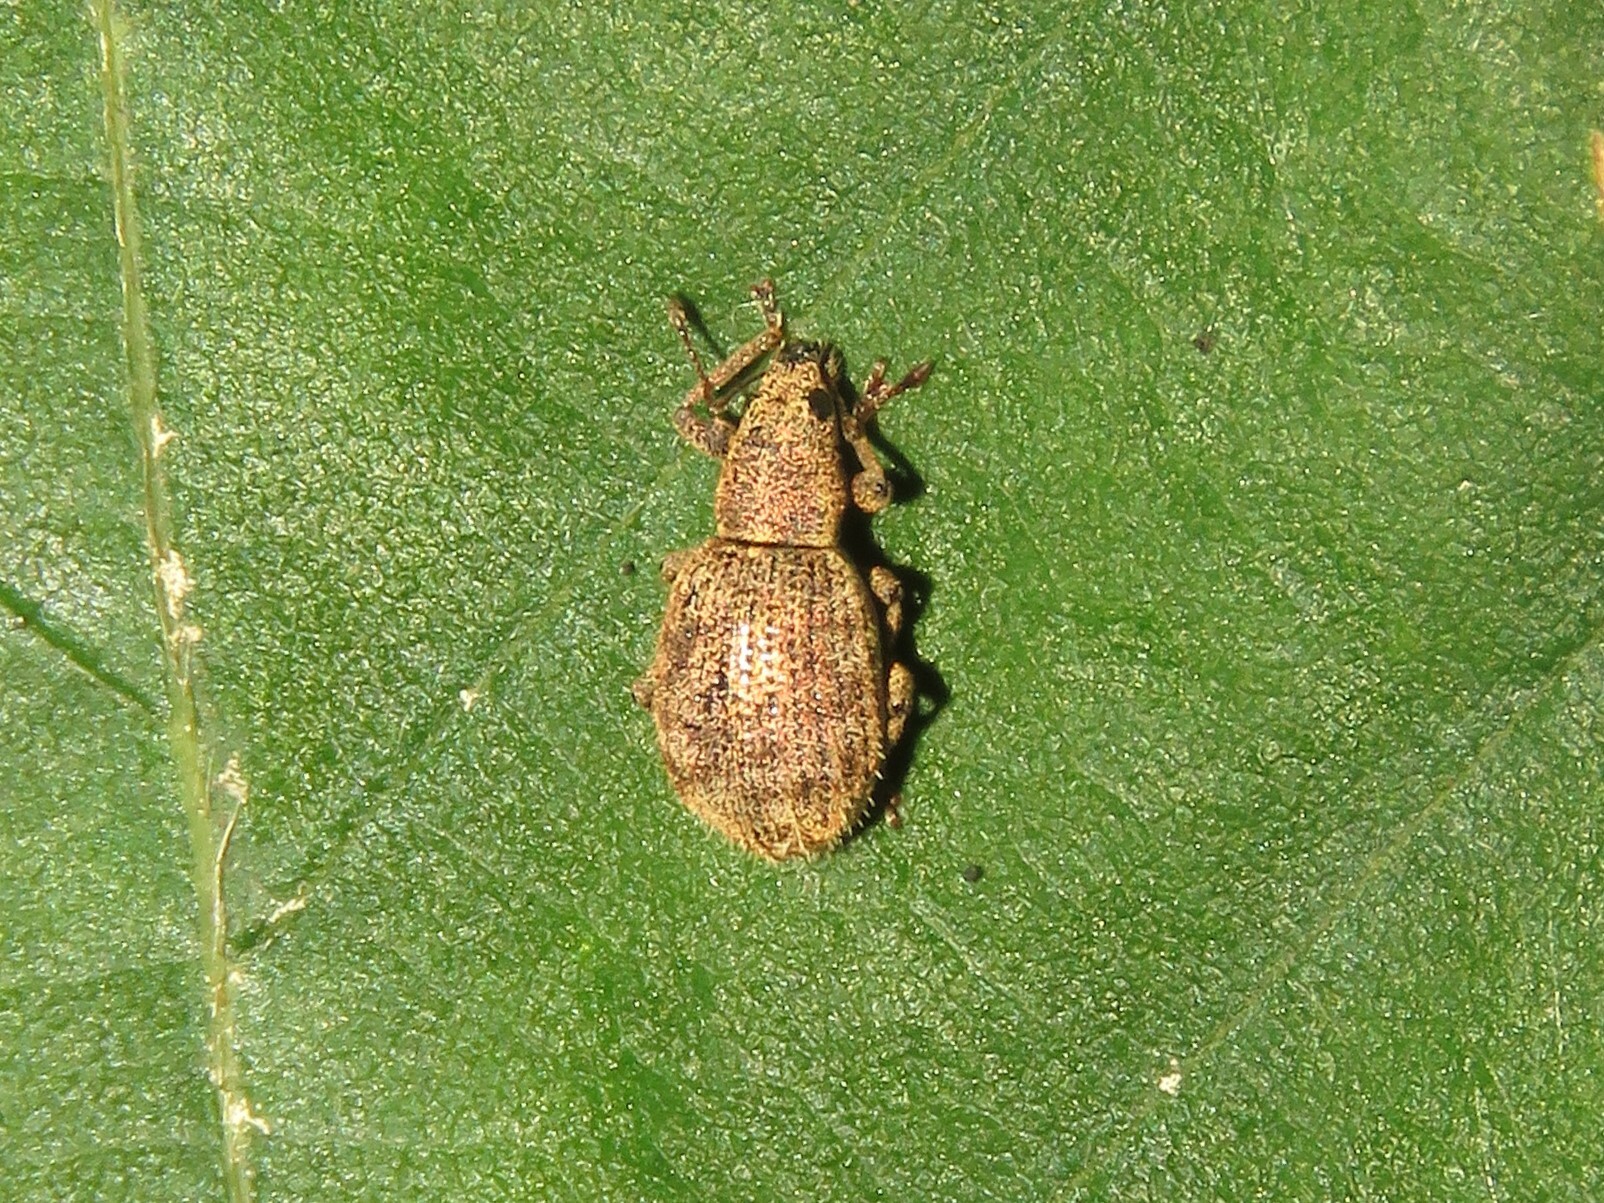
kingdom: Animalia
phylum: Arthropoda
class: Insecta
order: Coleoptera
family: Curculionidae
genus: Sciaphilus
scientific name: Sciaphilus asperatus
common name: Weevil
